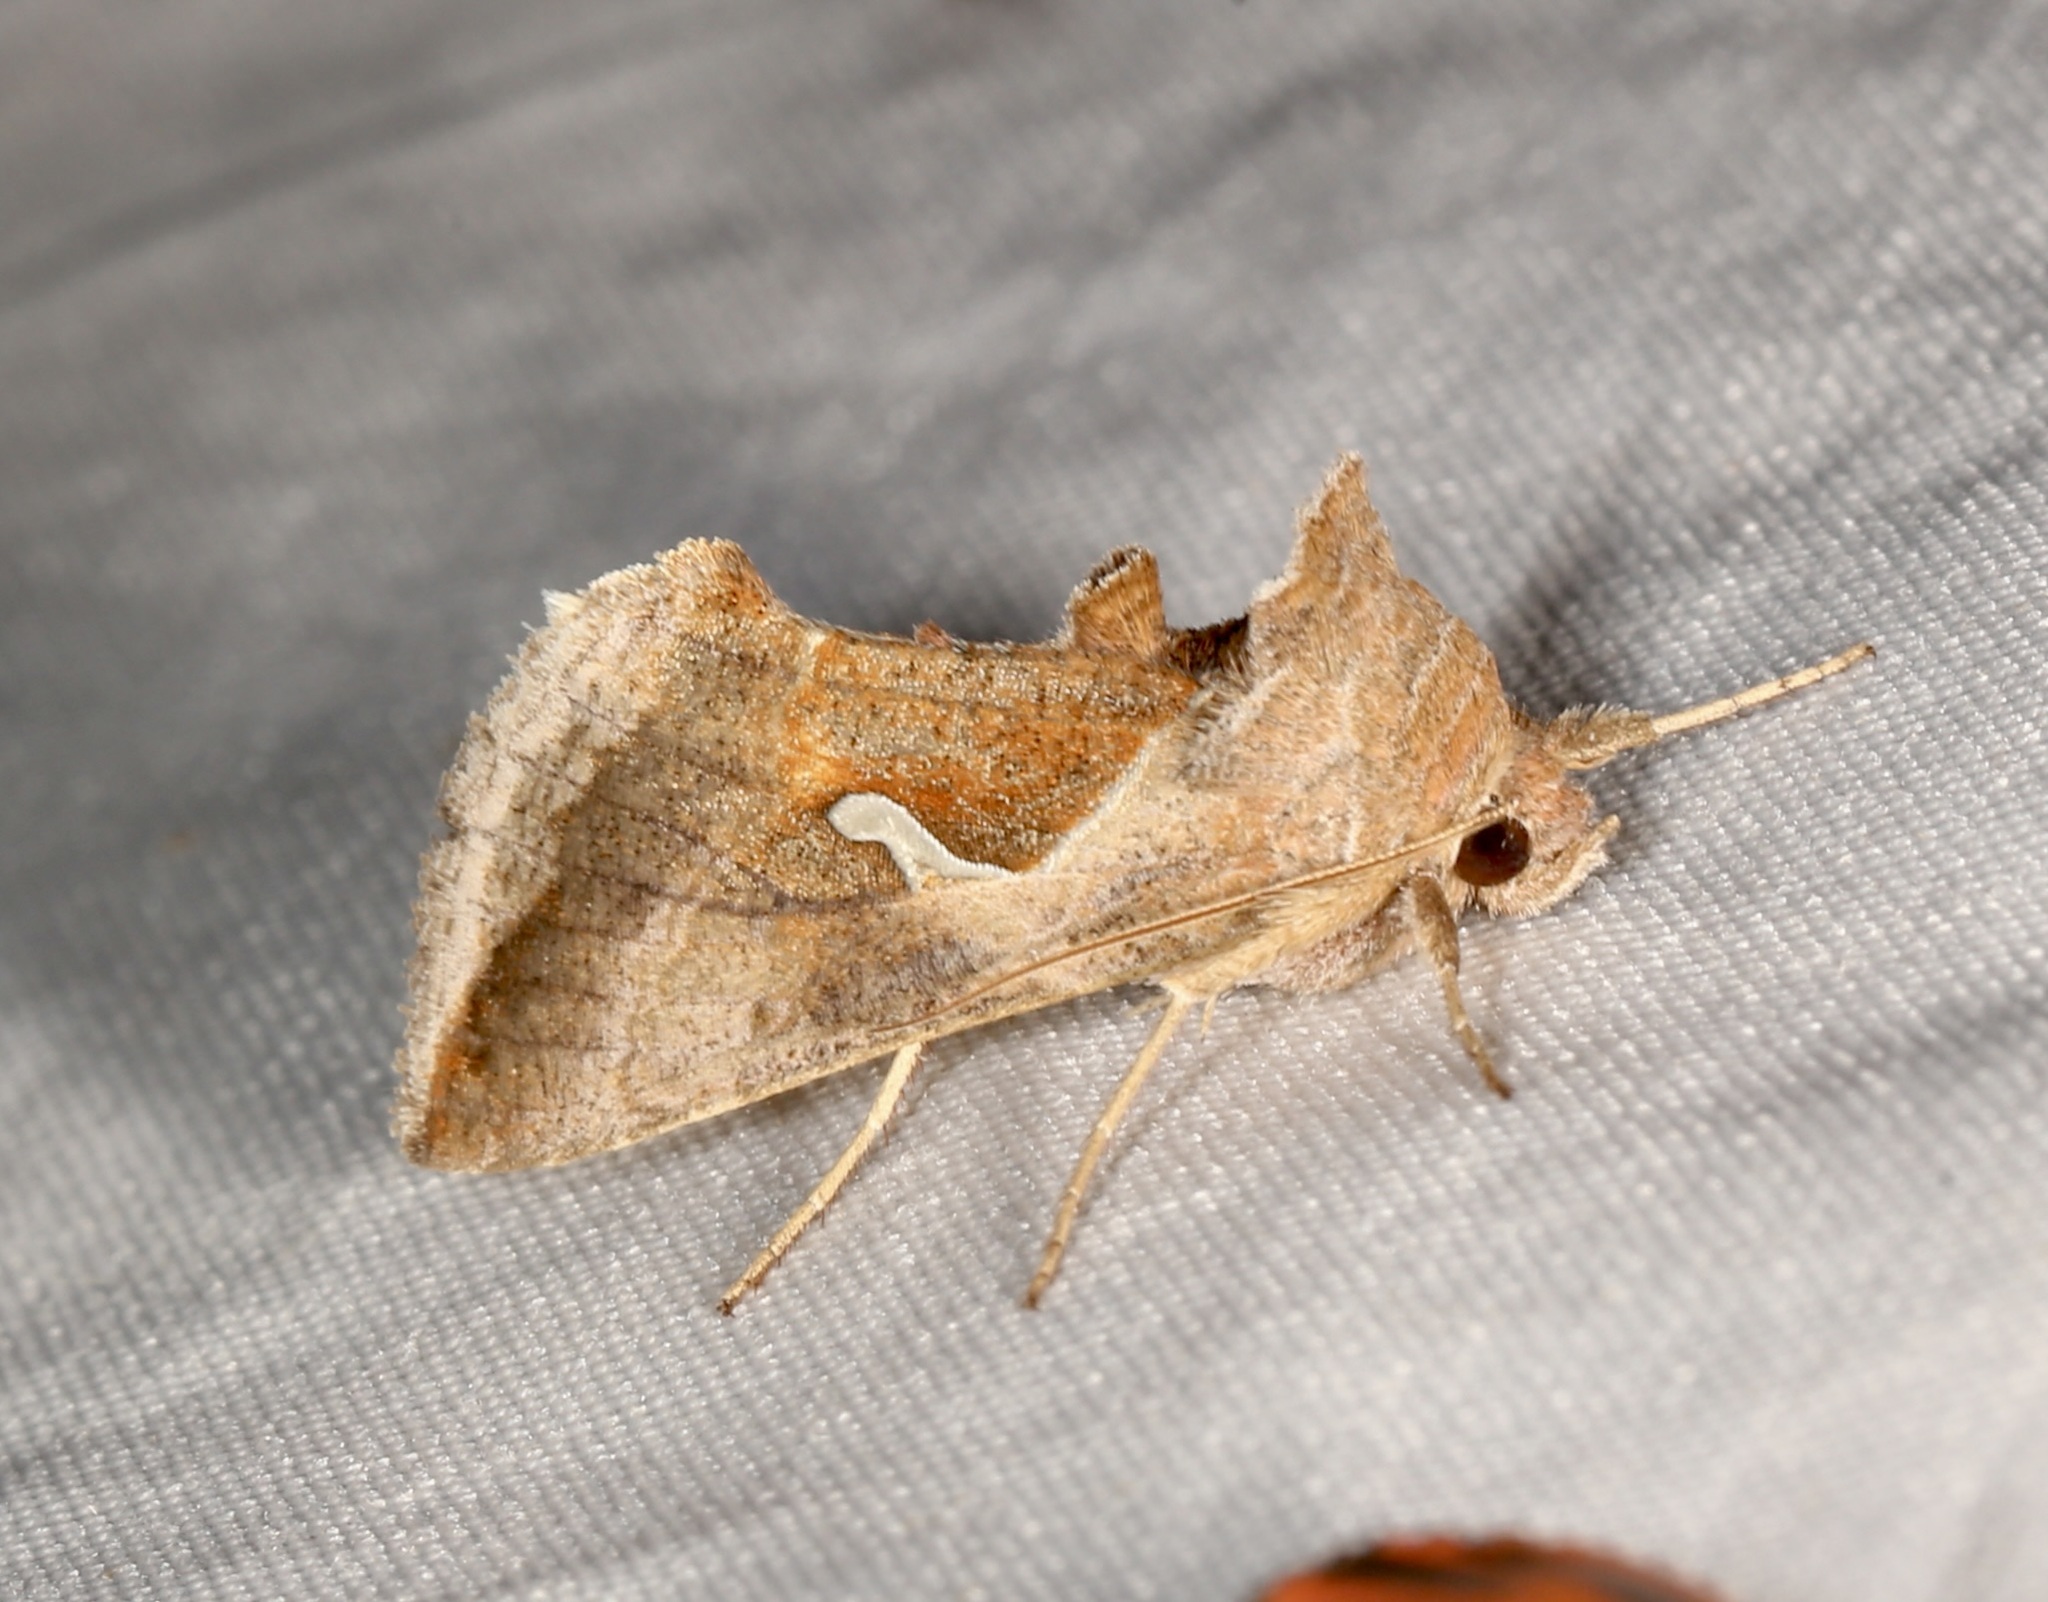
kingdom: Animalia
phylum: Arthropoda
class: Insecta
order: Lepidoptera
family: Noctuidae
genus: Anagrapha
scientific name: Anagrapha falcifera
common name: Celery looper
